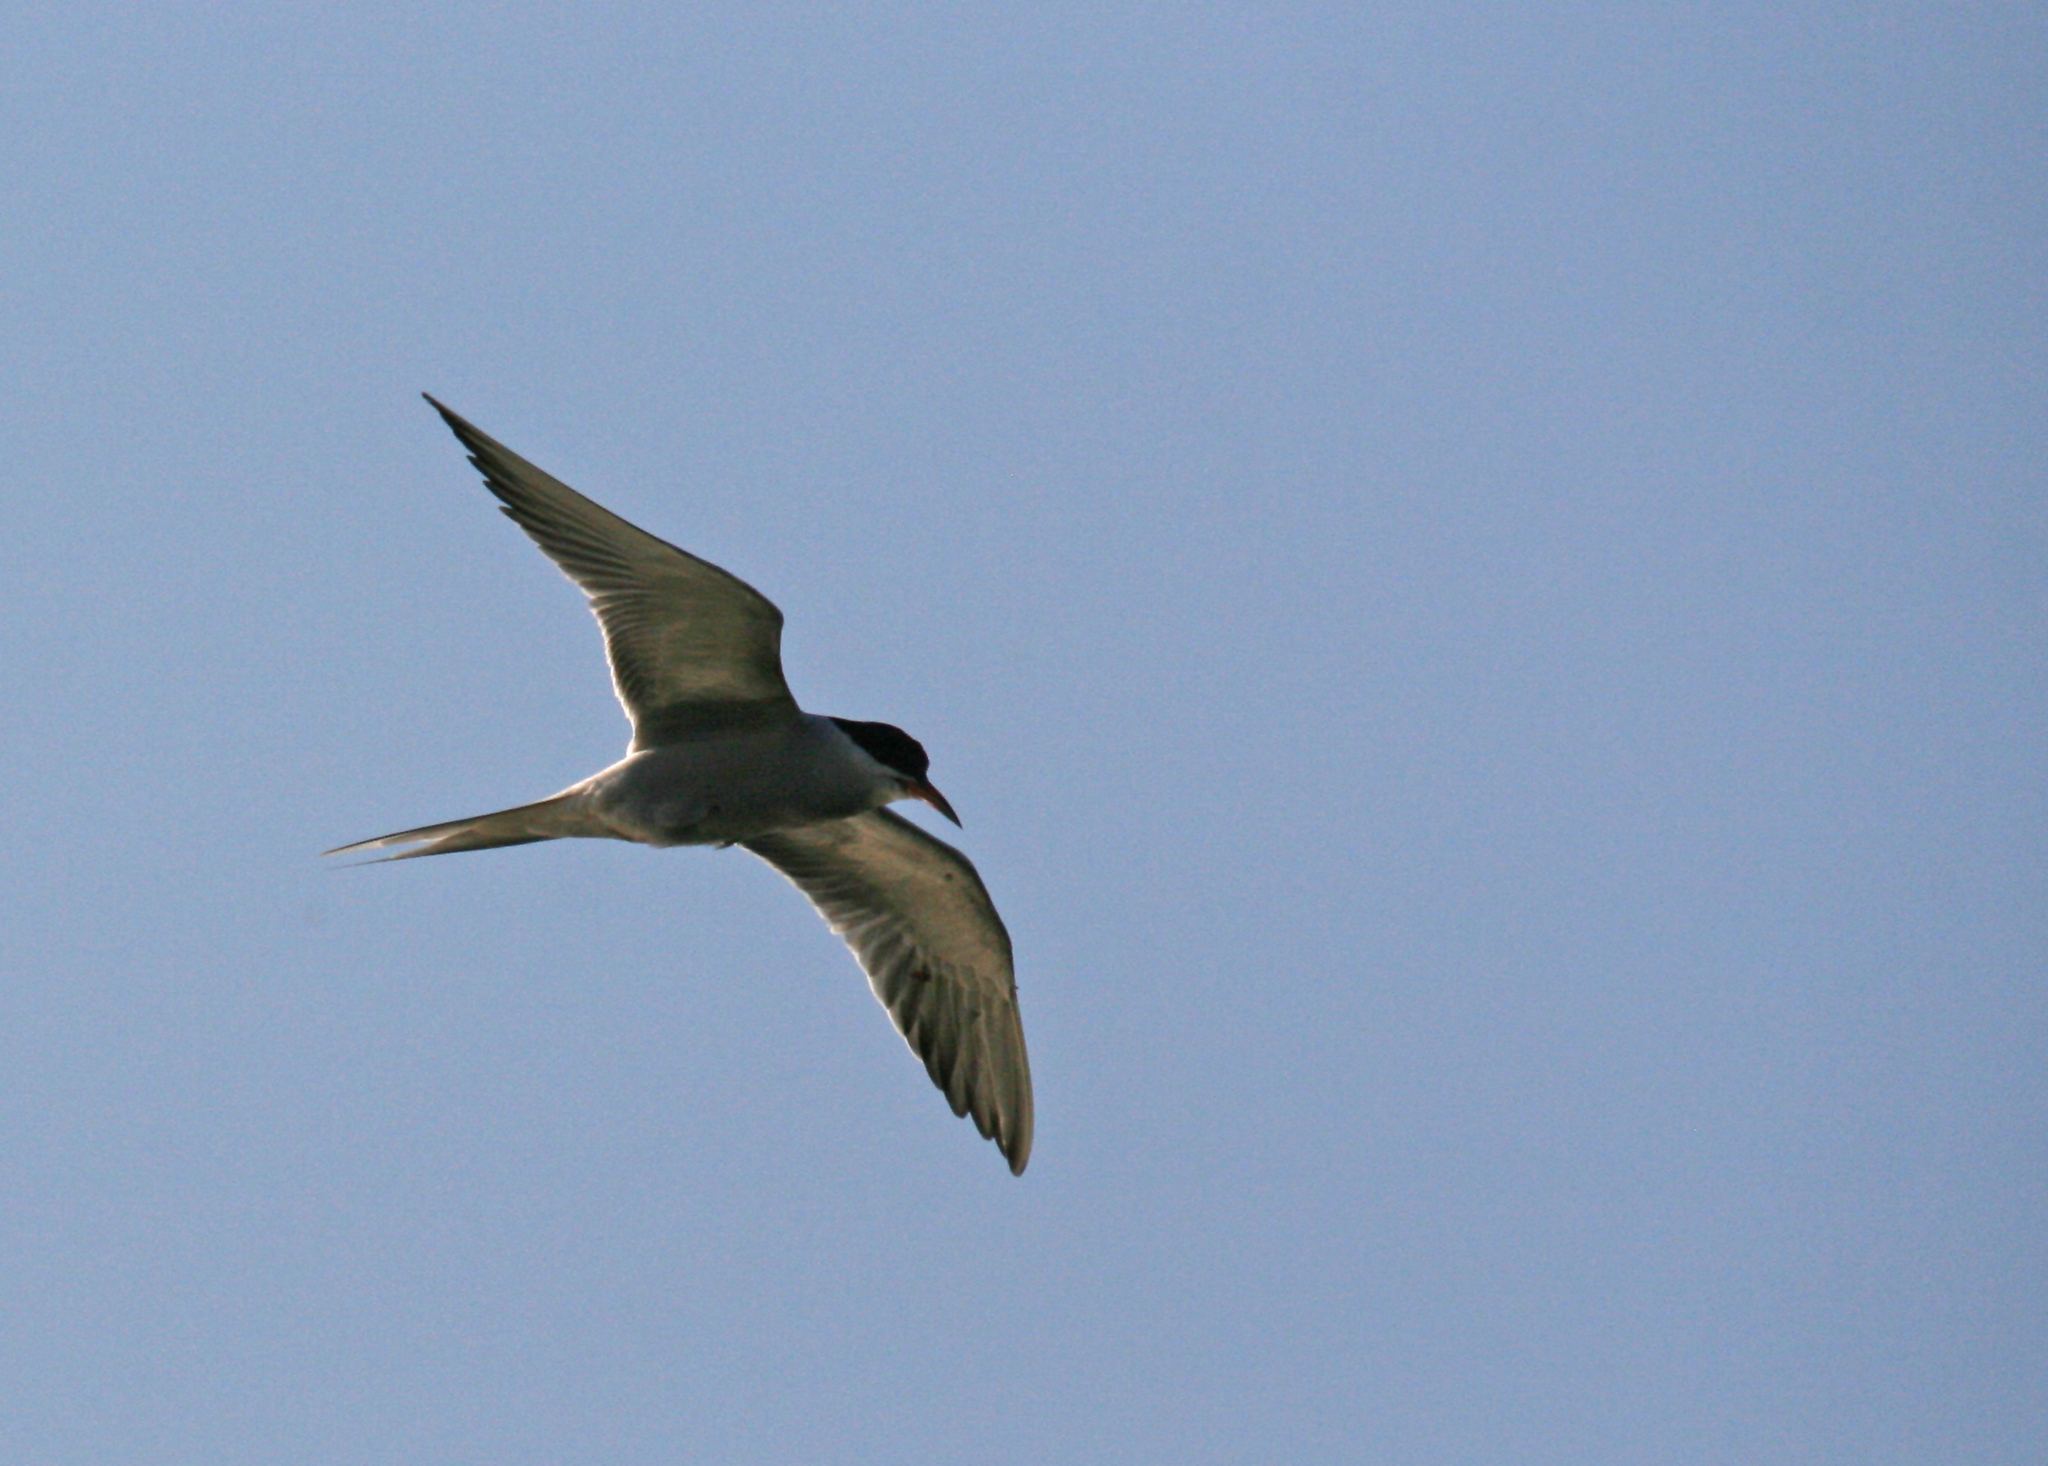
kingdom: Animalia
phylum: Chordata
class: Aves
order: Charadriiformes
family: Laridae
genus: Sterna
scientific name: Sterna hirundo
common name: Common tern
